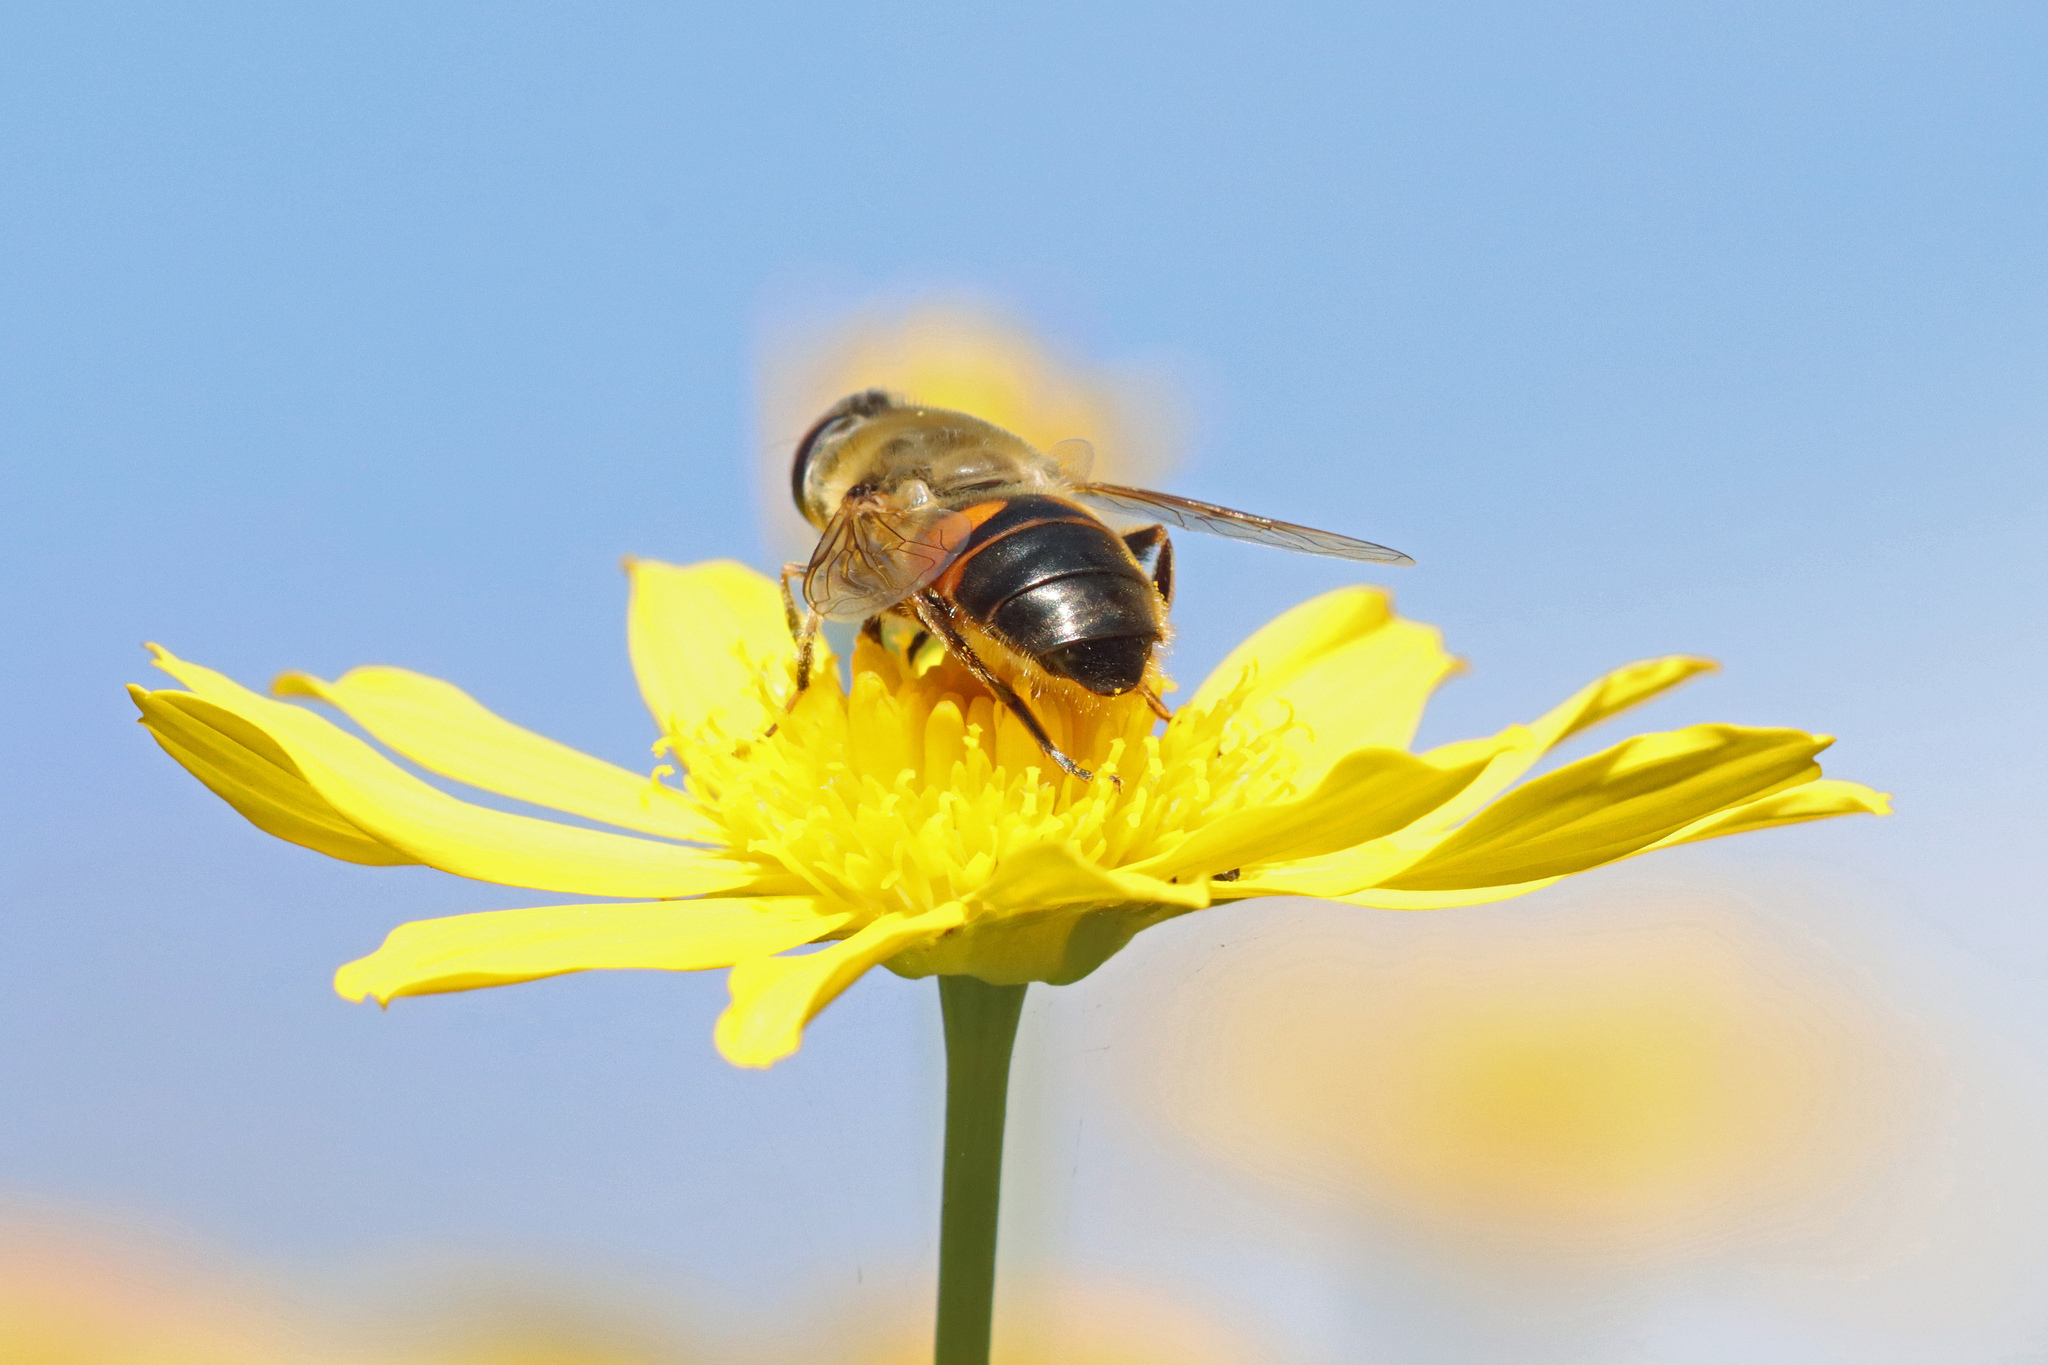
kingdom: Animalia
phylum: Arthropoda
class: Insecta
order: Diptera
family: Syrphidae
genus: Eristalis
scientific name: Eristalis tenax
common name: Drone fly
